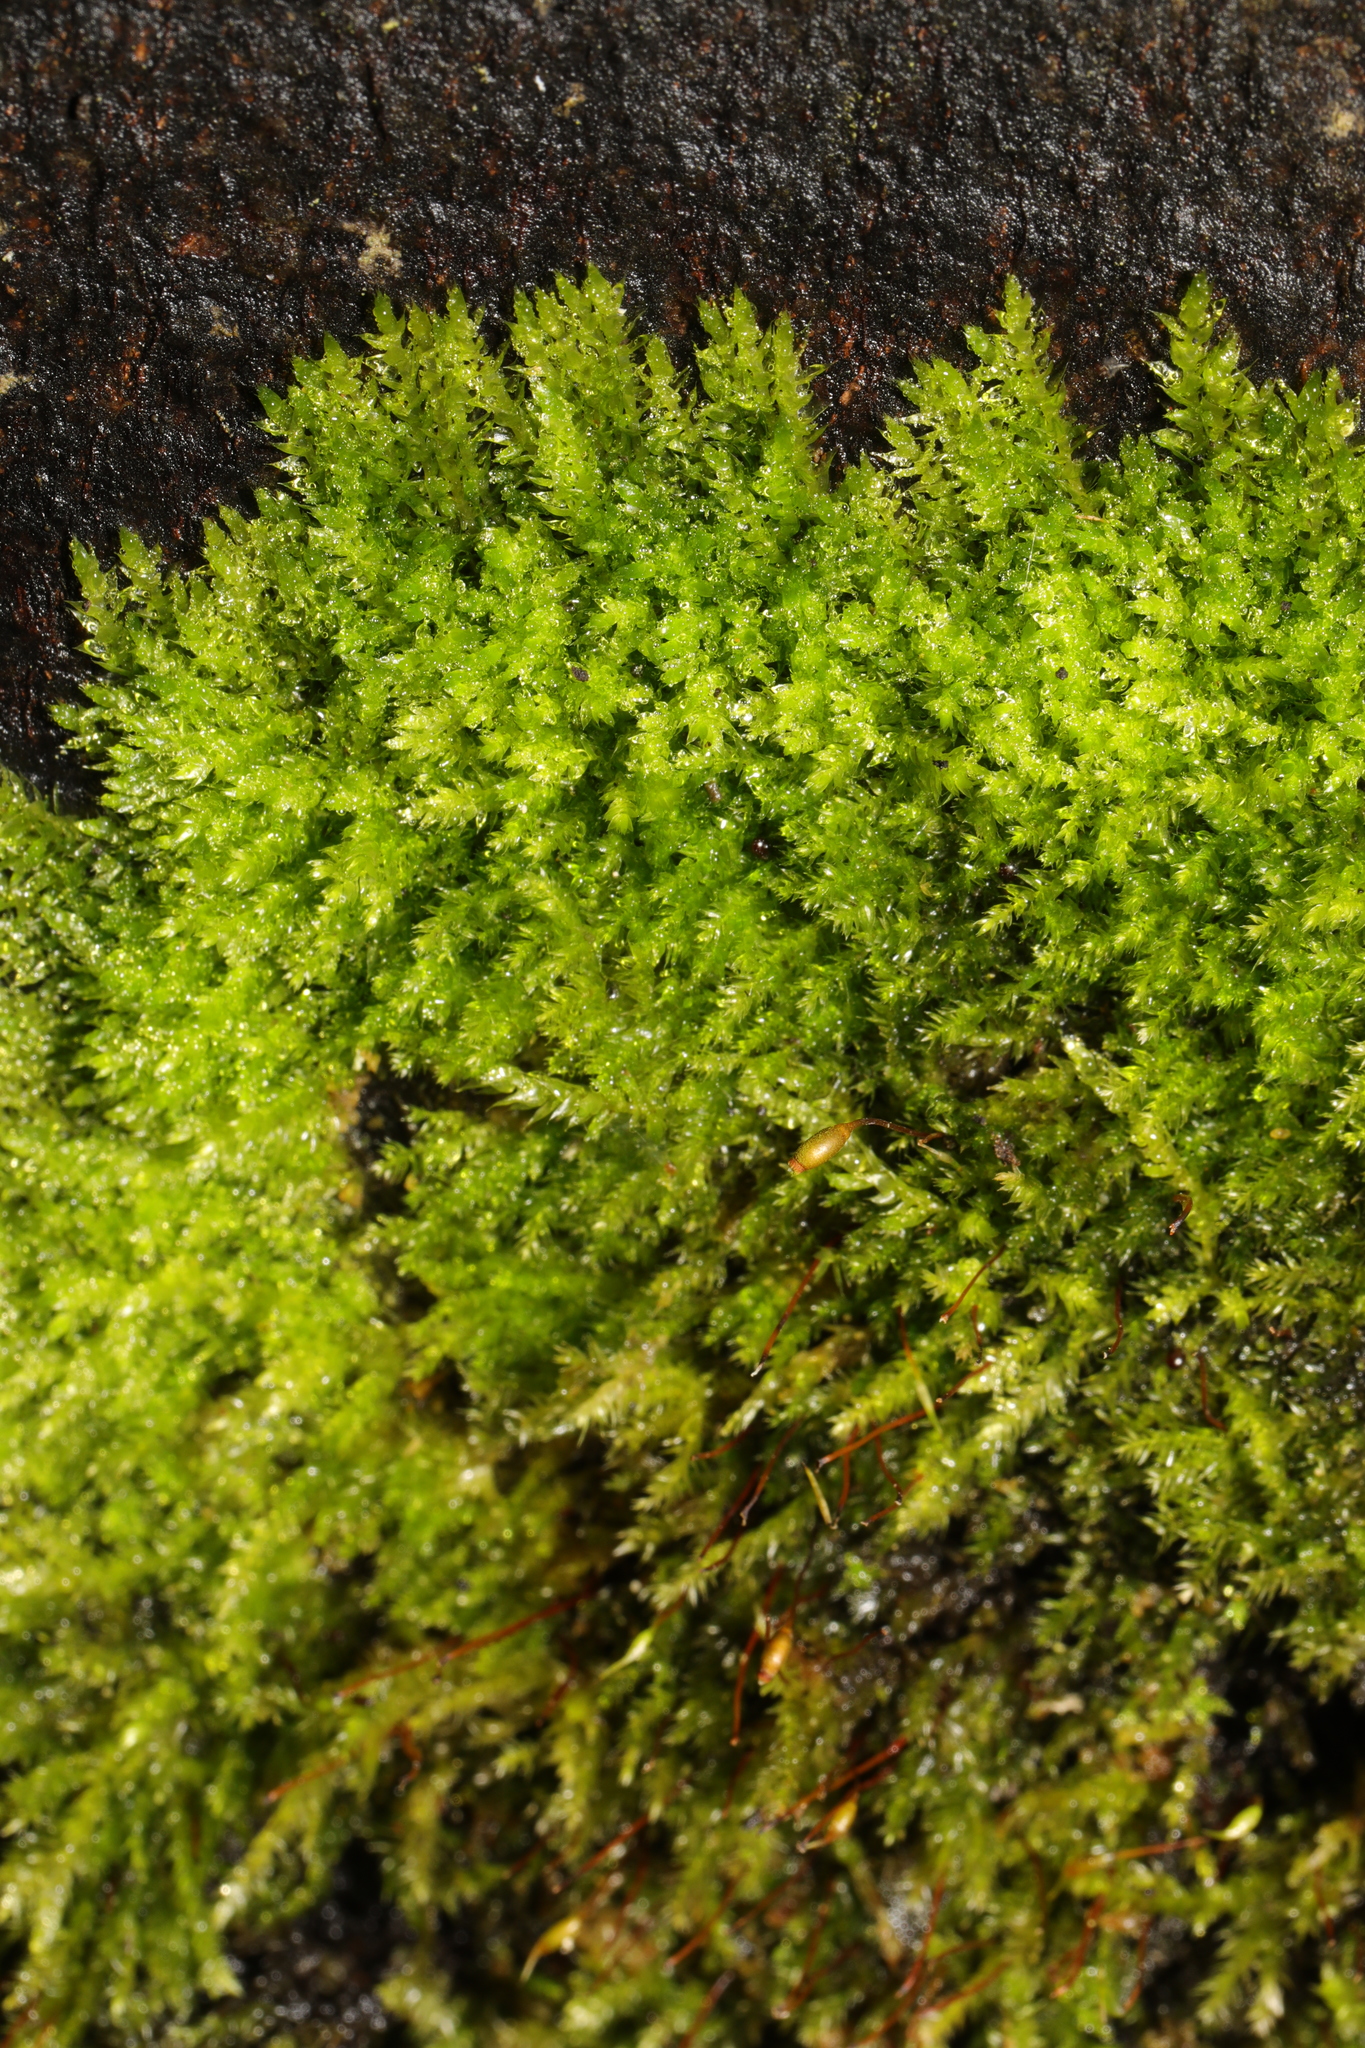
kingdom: Plantae
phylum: Bryophyta
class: Bryopsida
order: Hypnales
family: Brachytheciaceae
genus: Rhynchostegium
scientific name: Rhynchostegium confertum
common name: Clustered feather-moss
